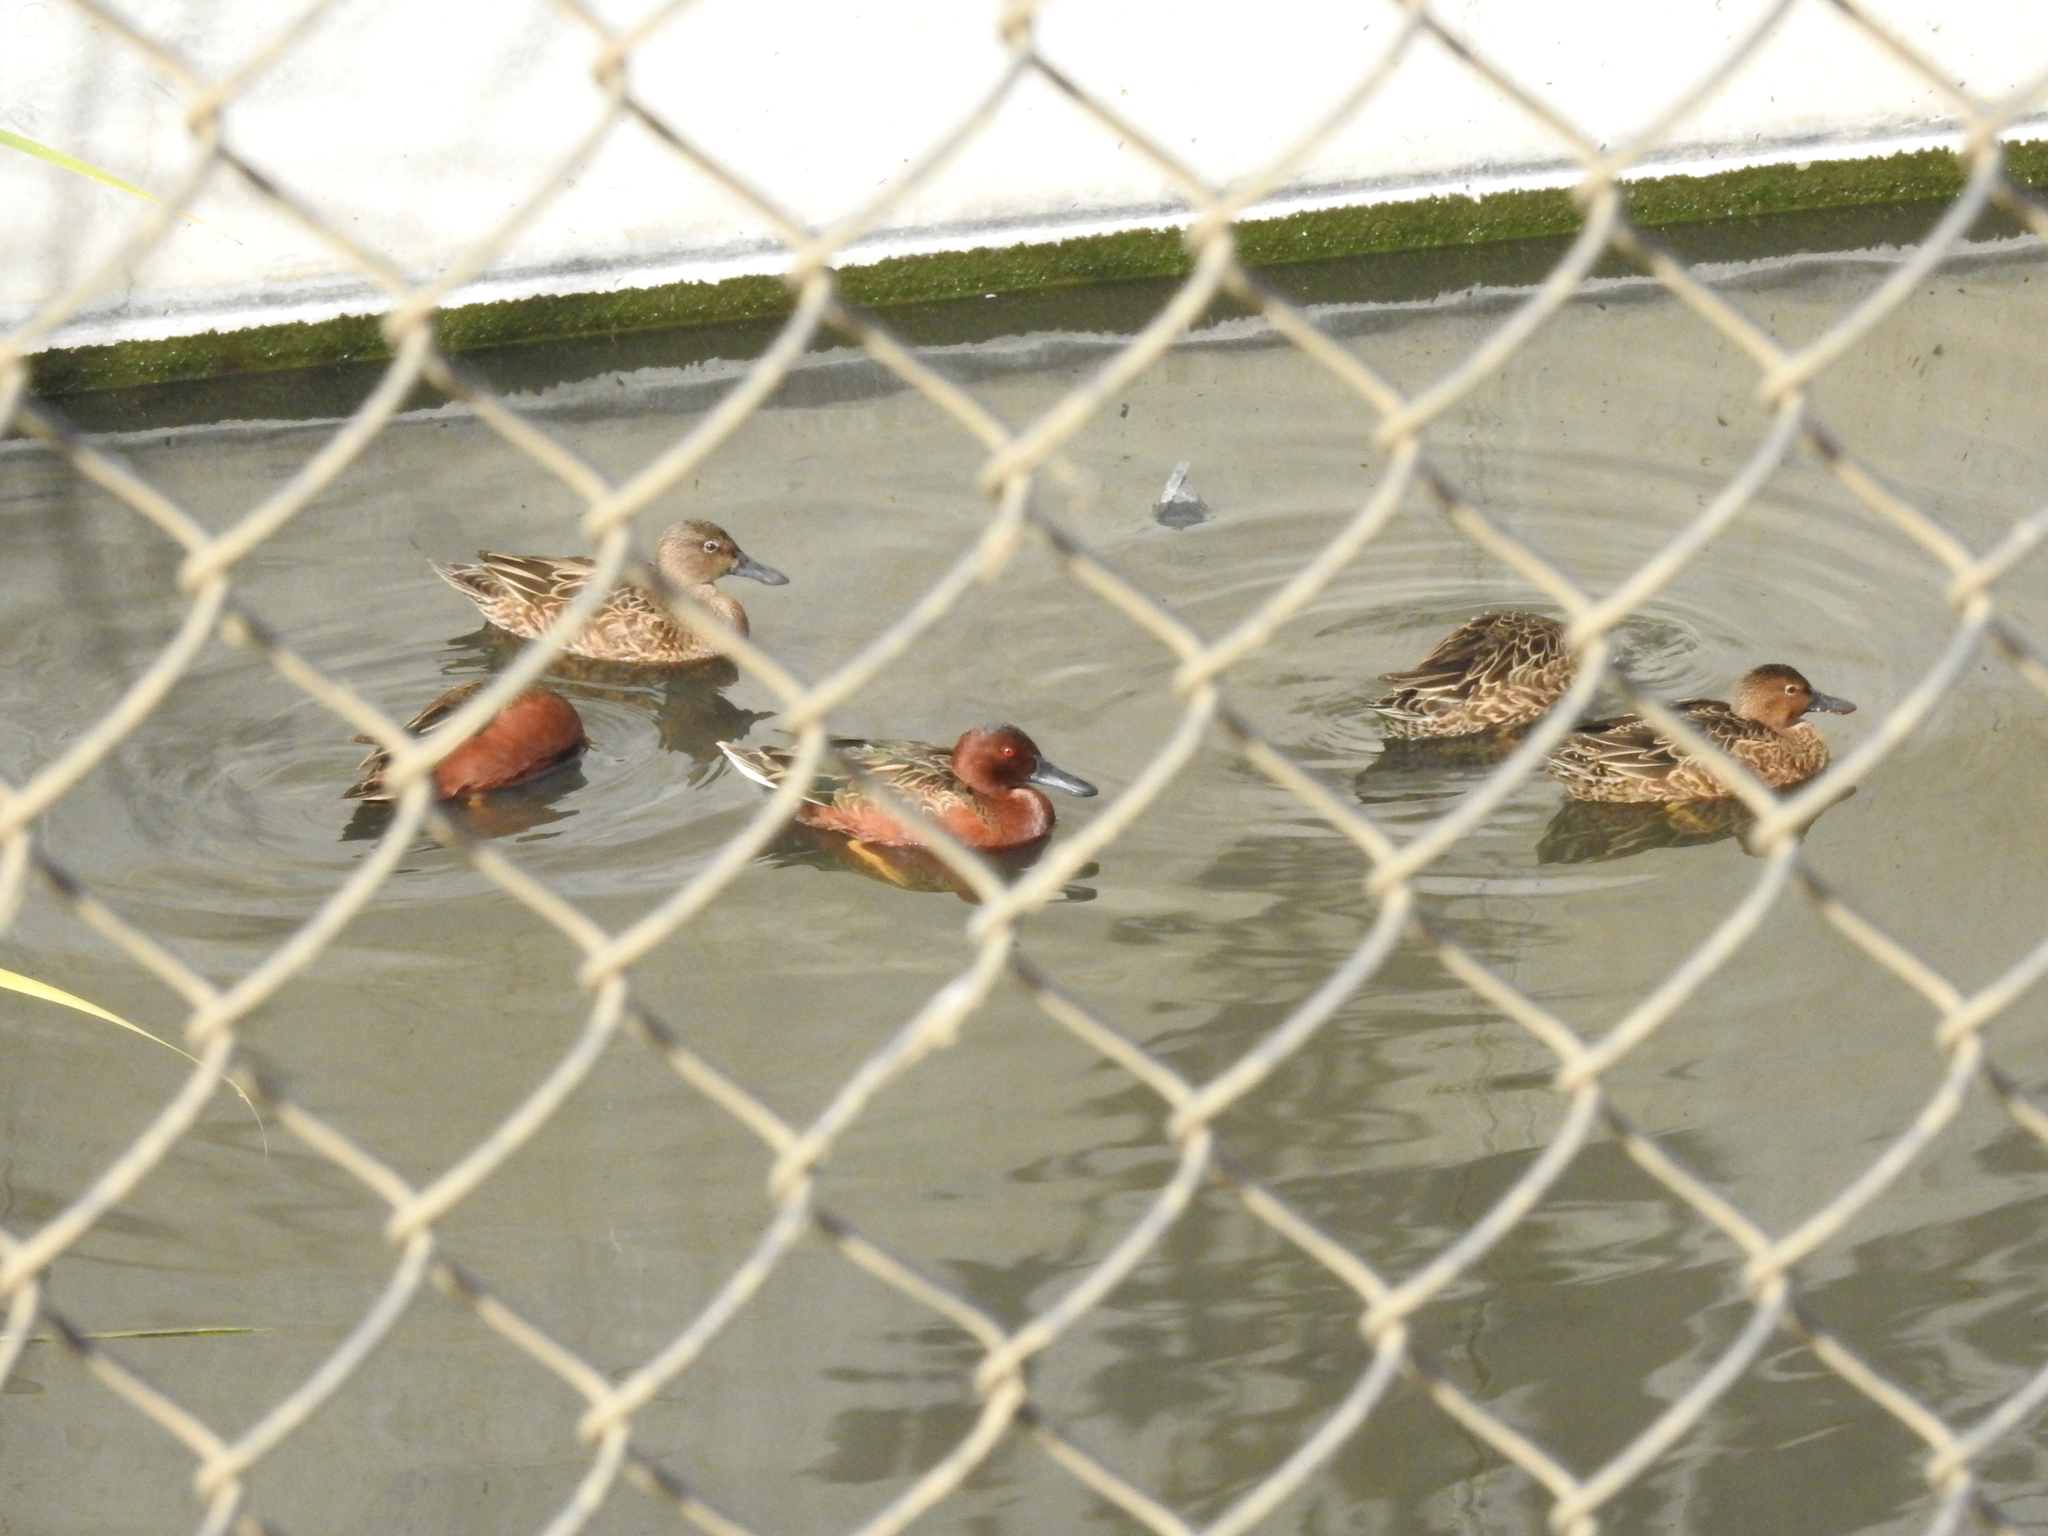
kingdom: Animalia
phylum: Chordata
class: Aves
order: Anseriformes
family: Anatidae
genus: Spatula
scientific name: Spatula cyanoptera
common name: Cinnamon teal
